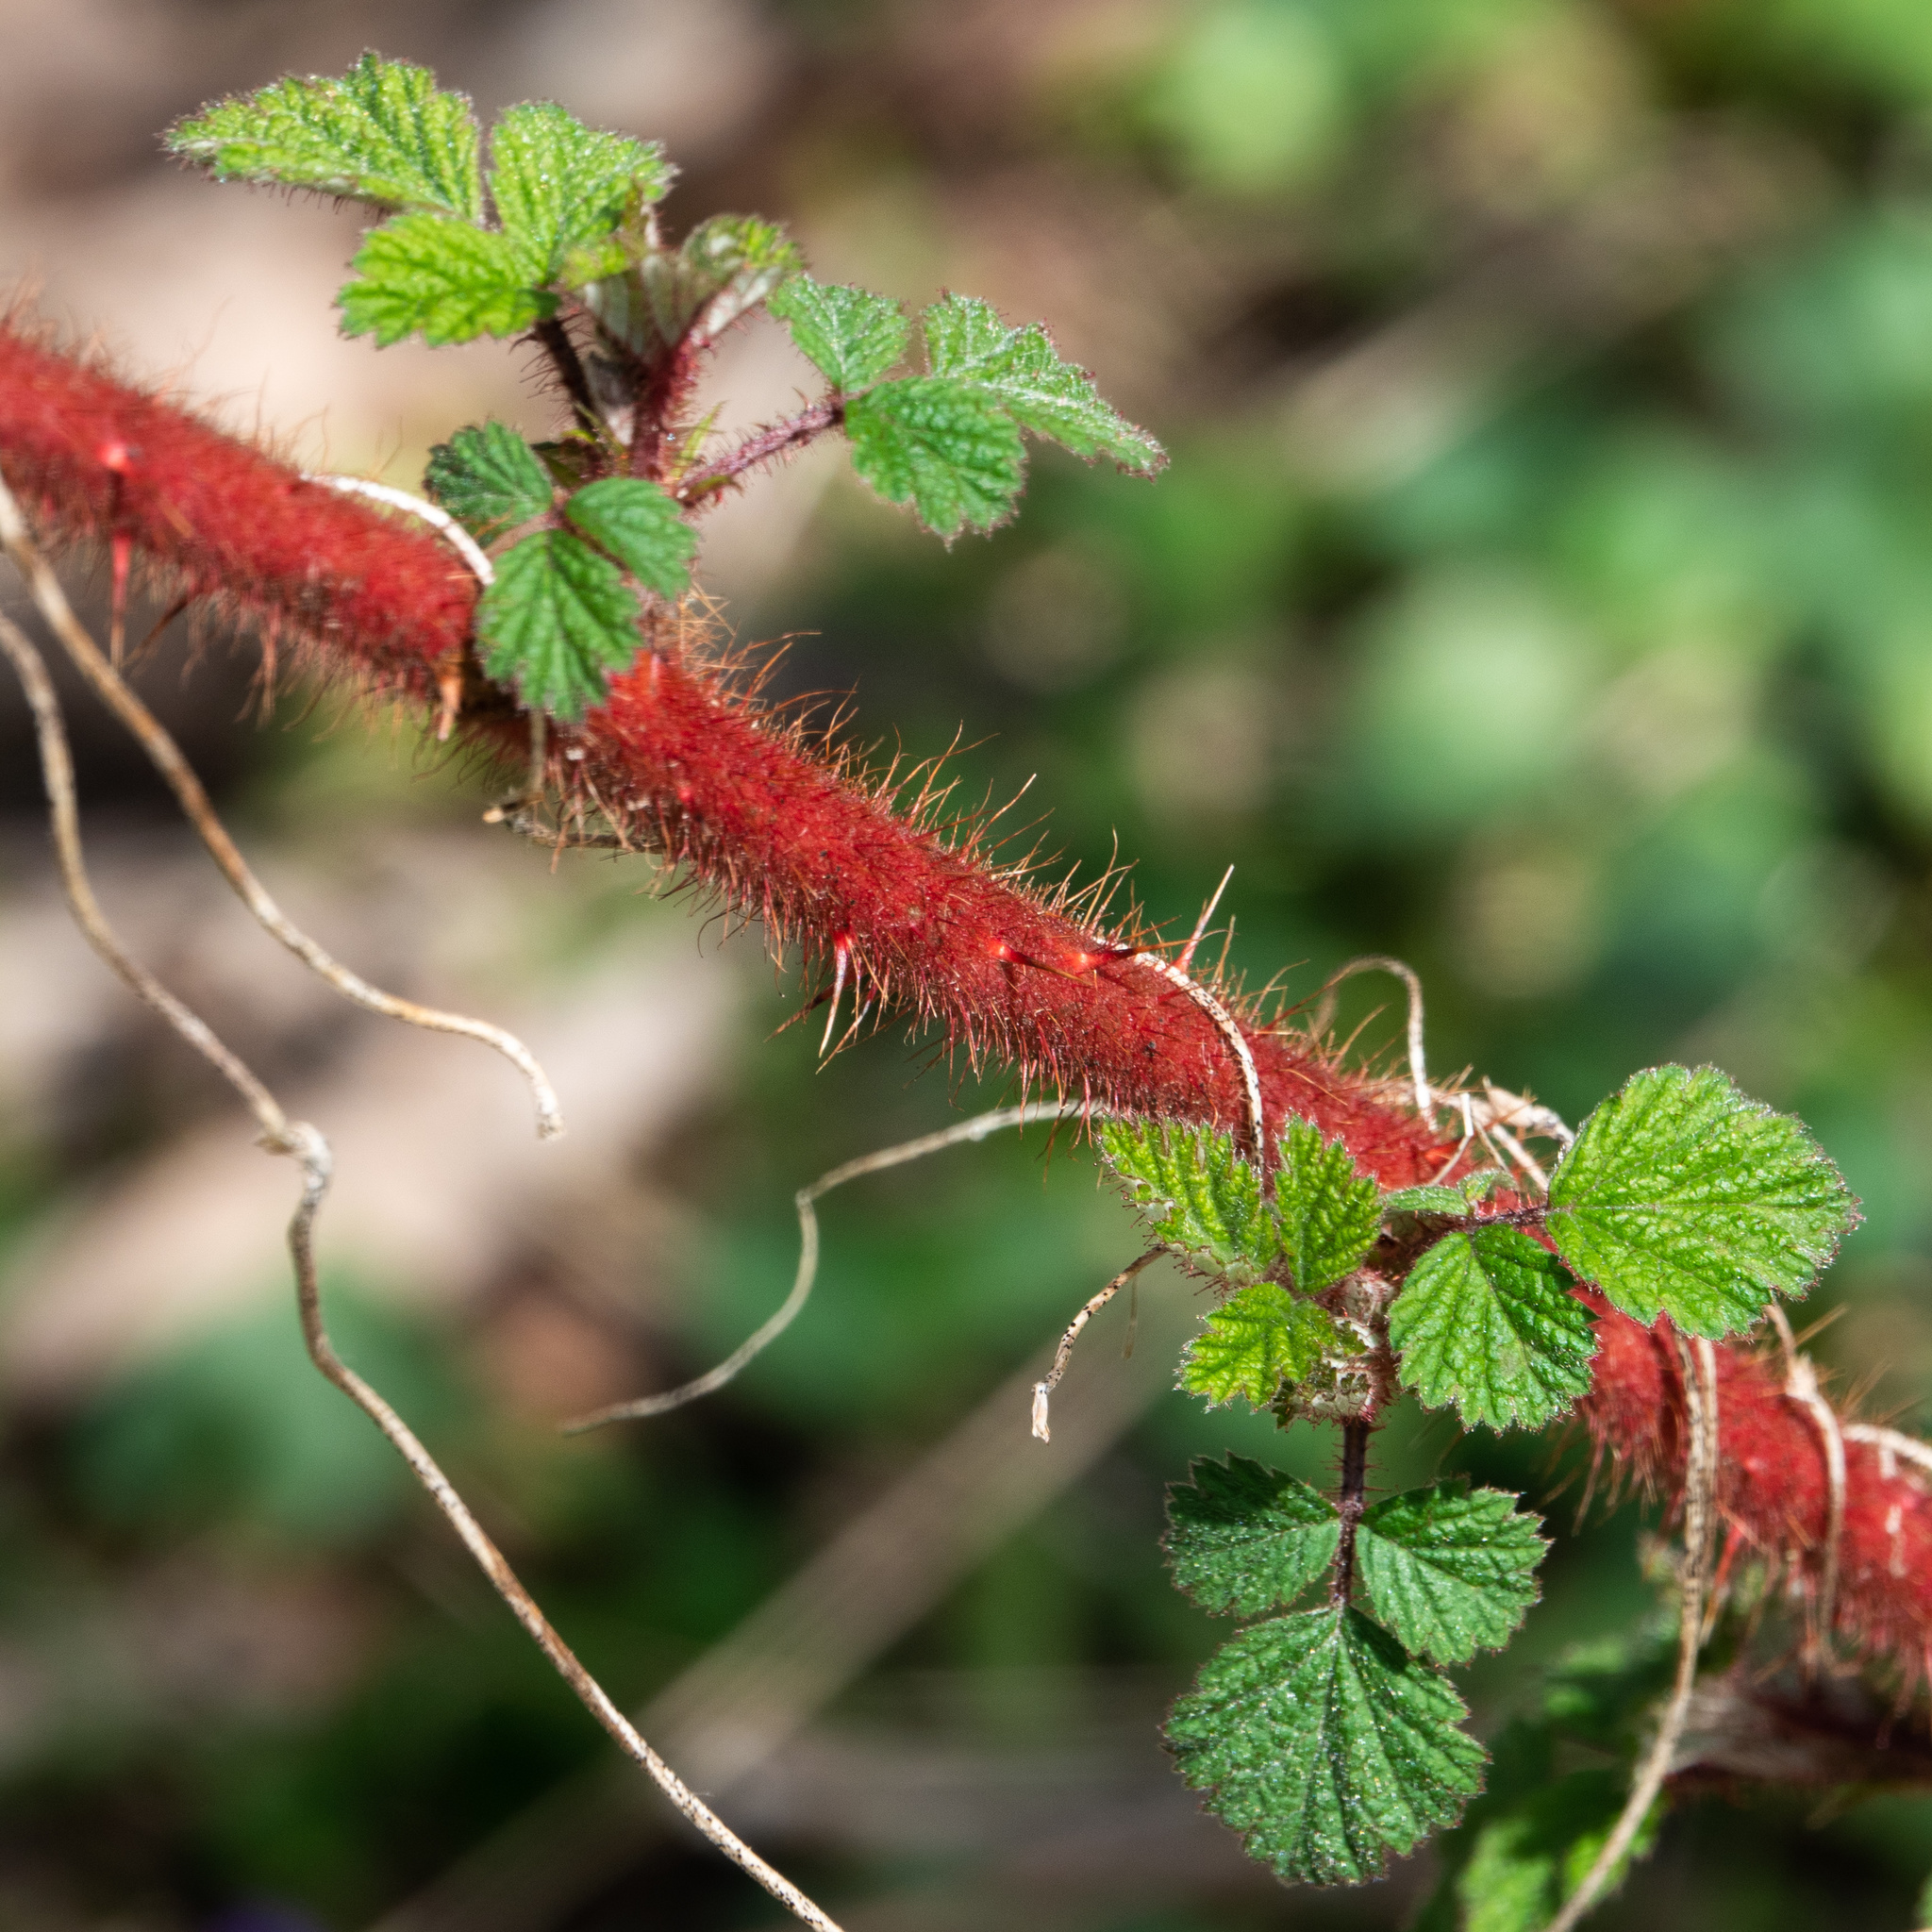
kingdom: Plantae
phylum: Tracheophyta
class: Magnoliopsida
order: Rosales
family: Rosaceae
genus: Rubus
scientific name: Rubus phoenicolasius
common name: Japanese wineberry
